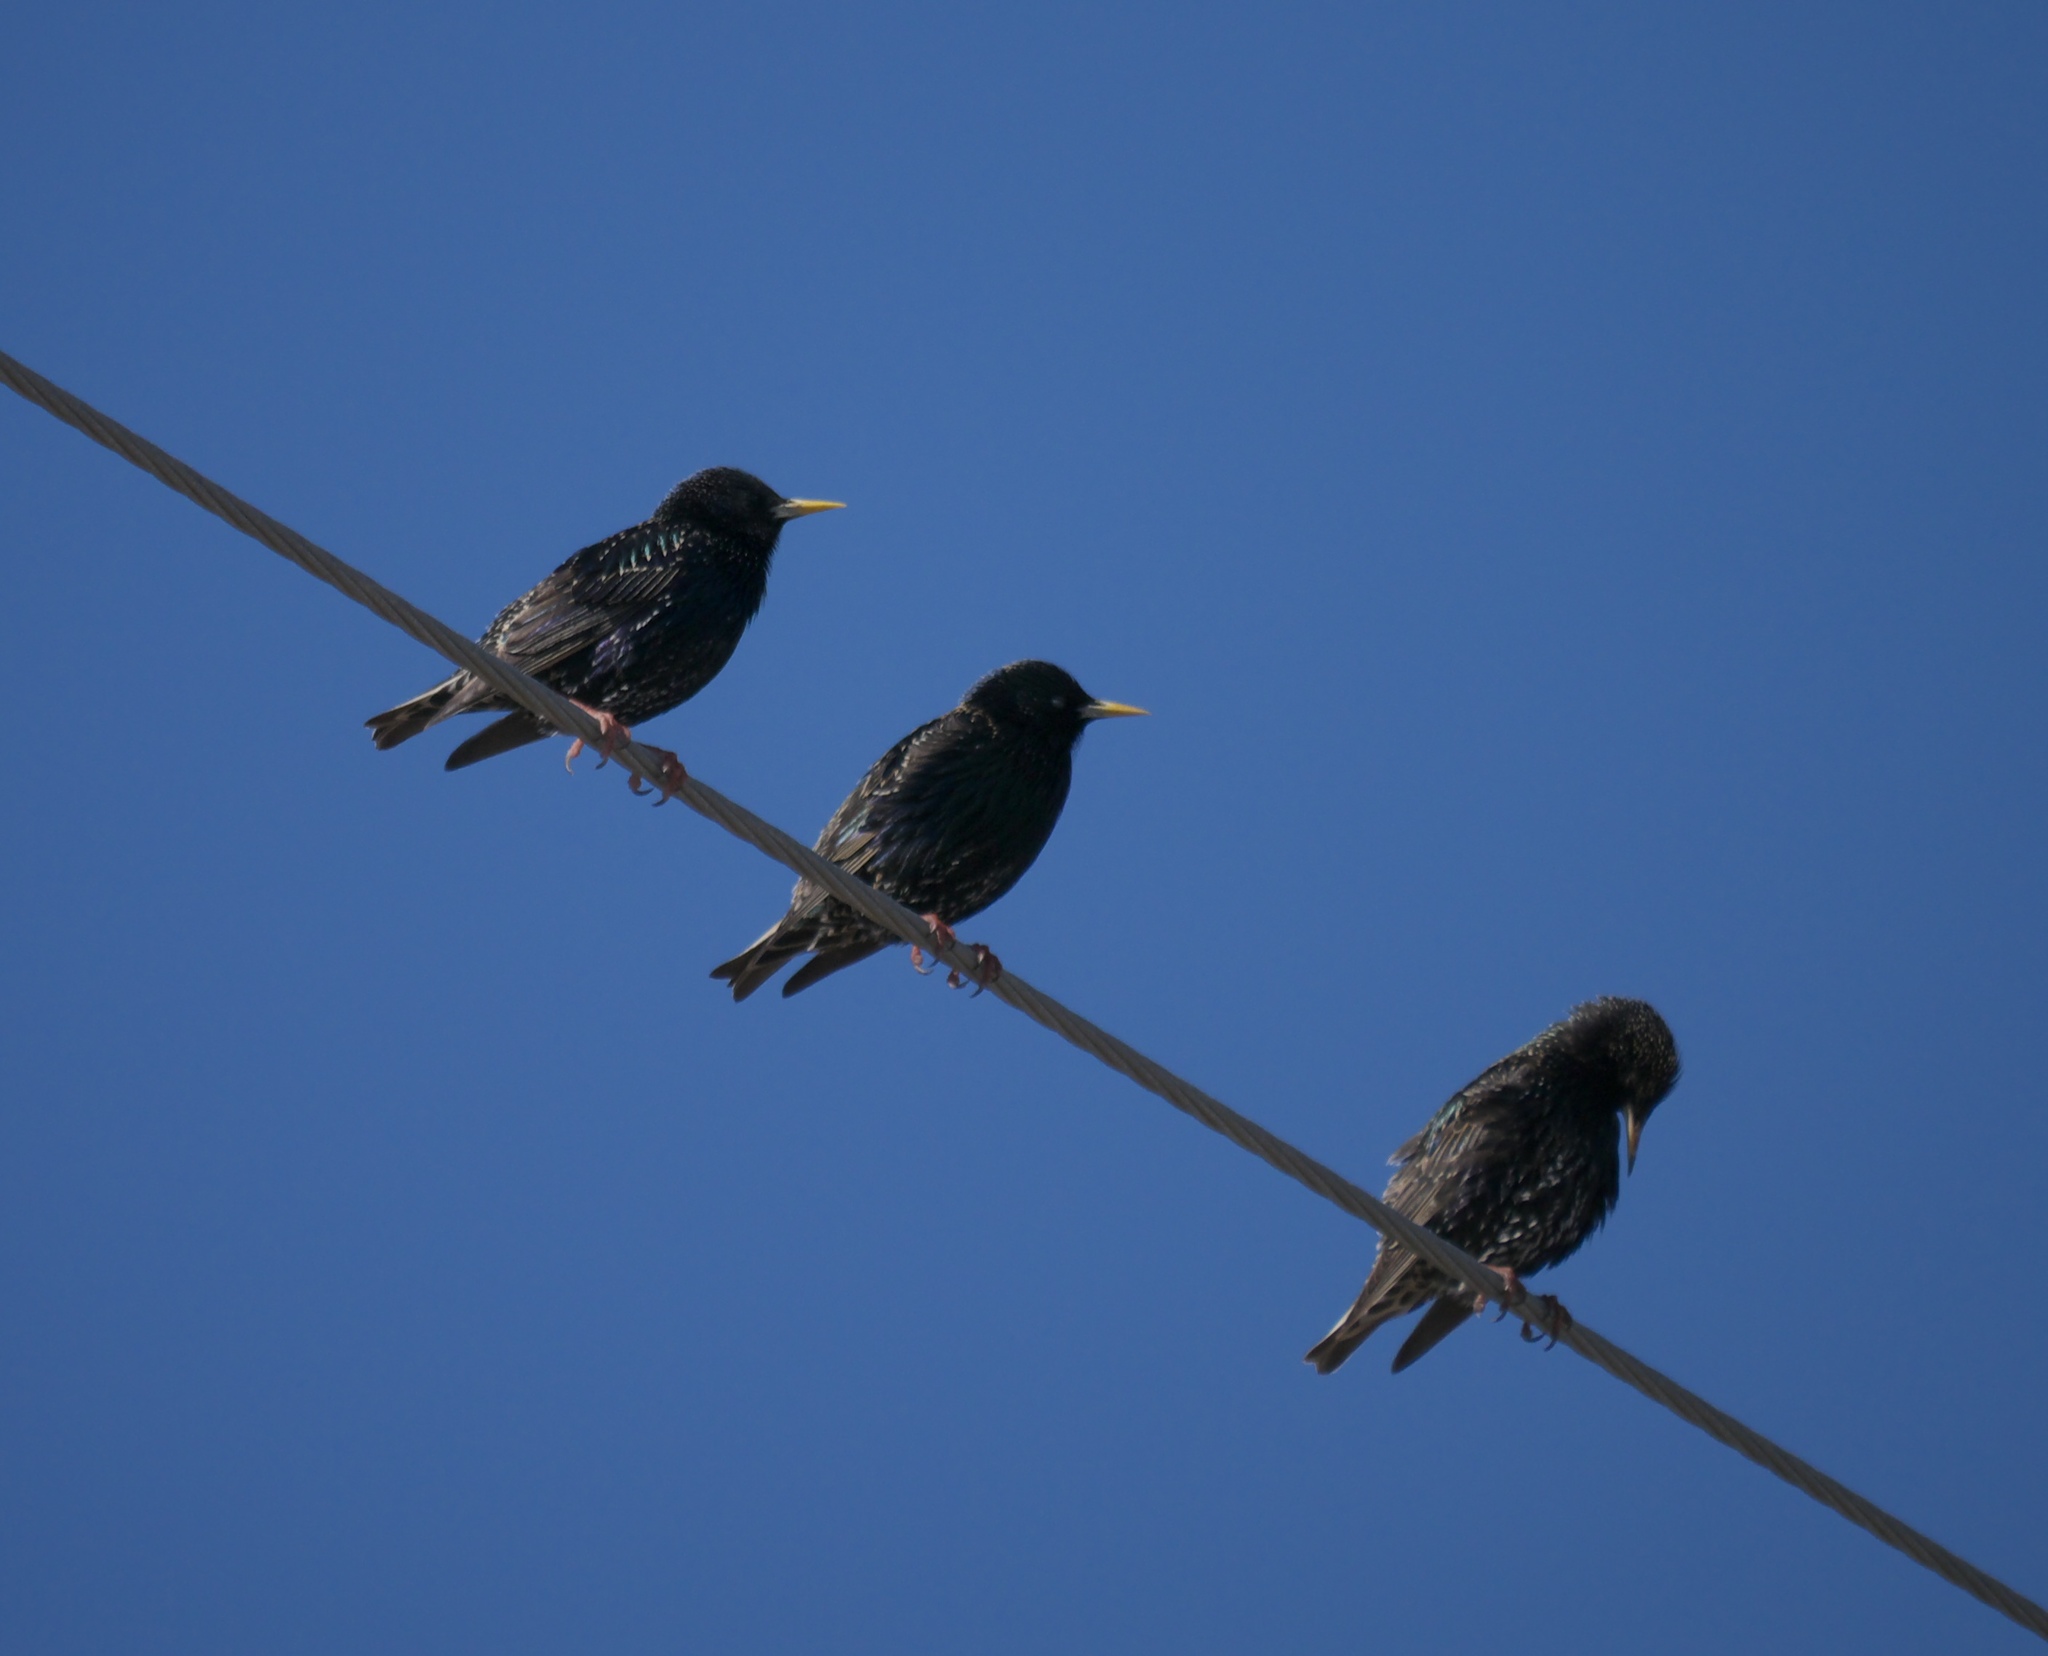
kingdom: Animalia
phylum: Chordata
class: Aves
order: Passeriformes
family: Sturnidae
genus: Sturnus
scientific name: Sturnus vulgaris
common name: Common starling
